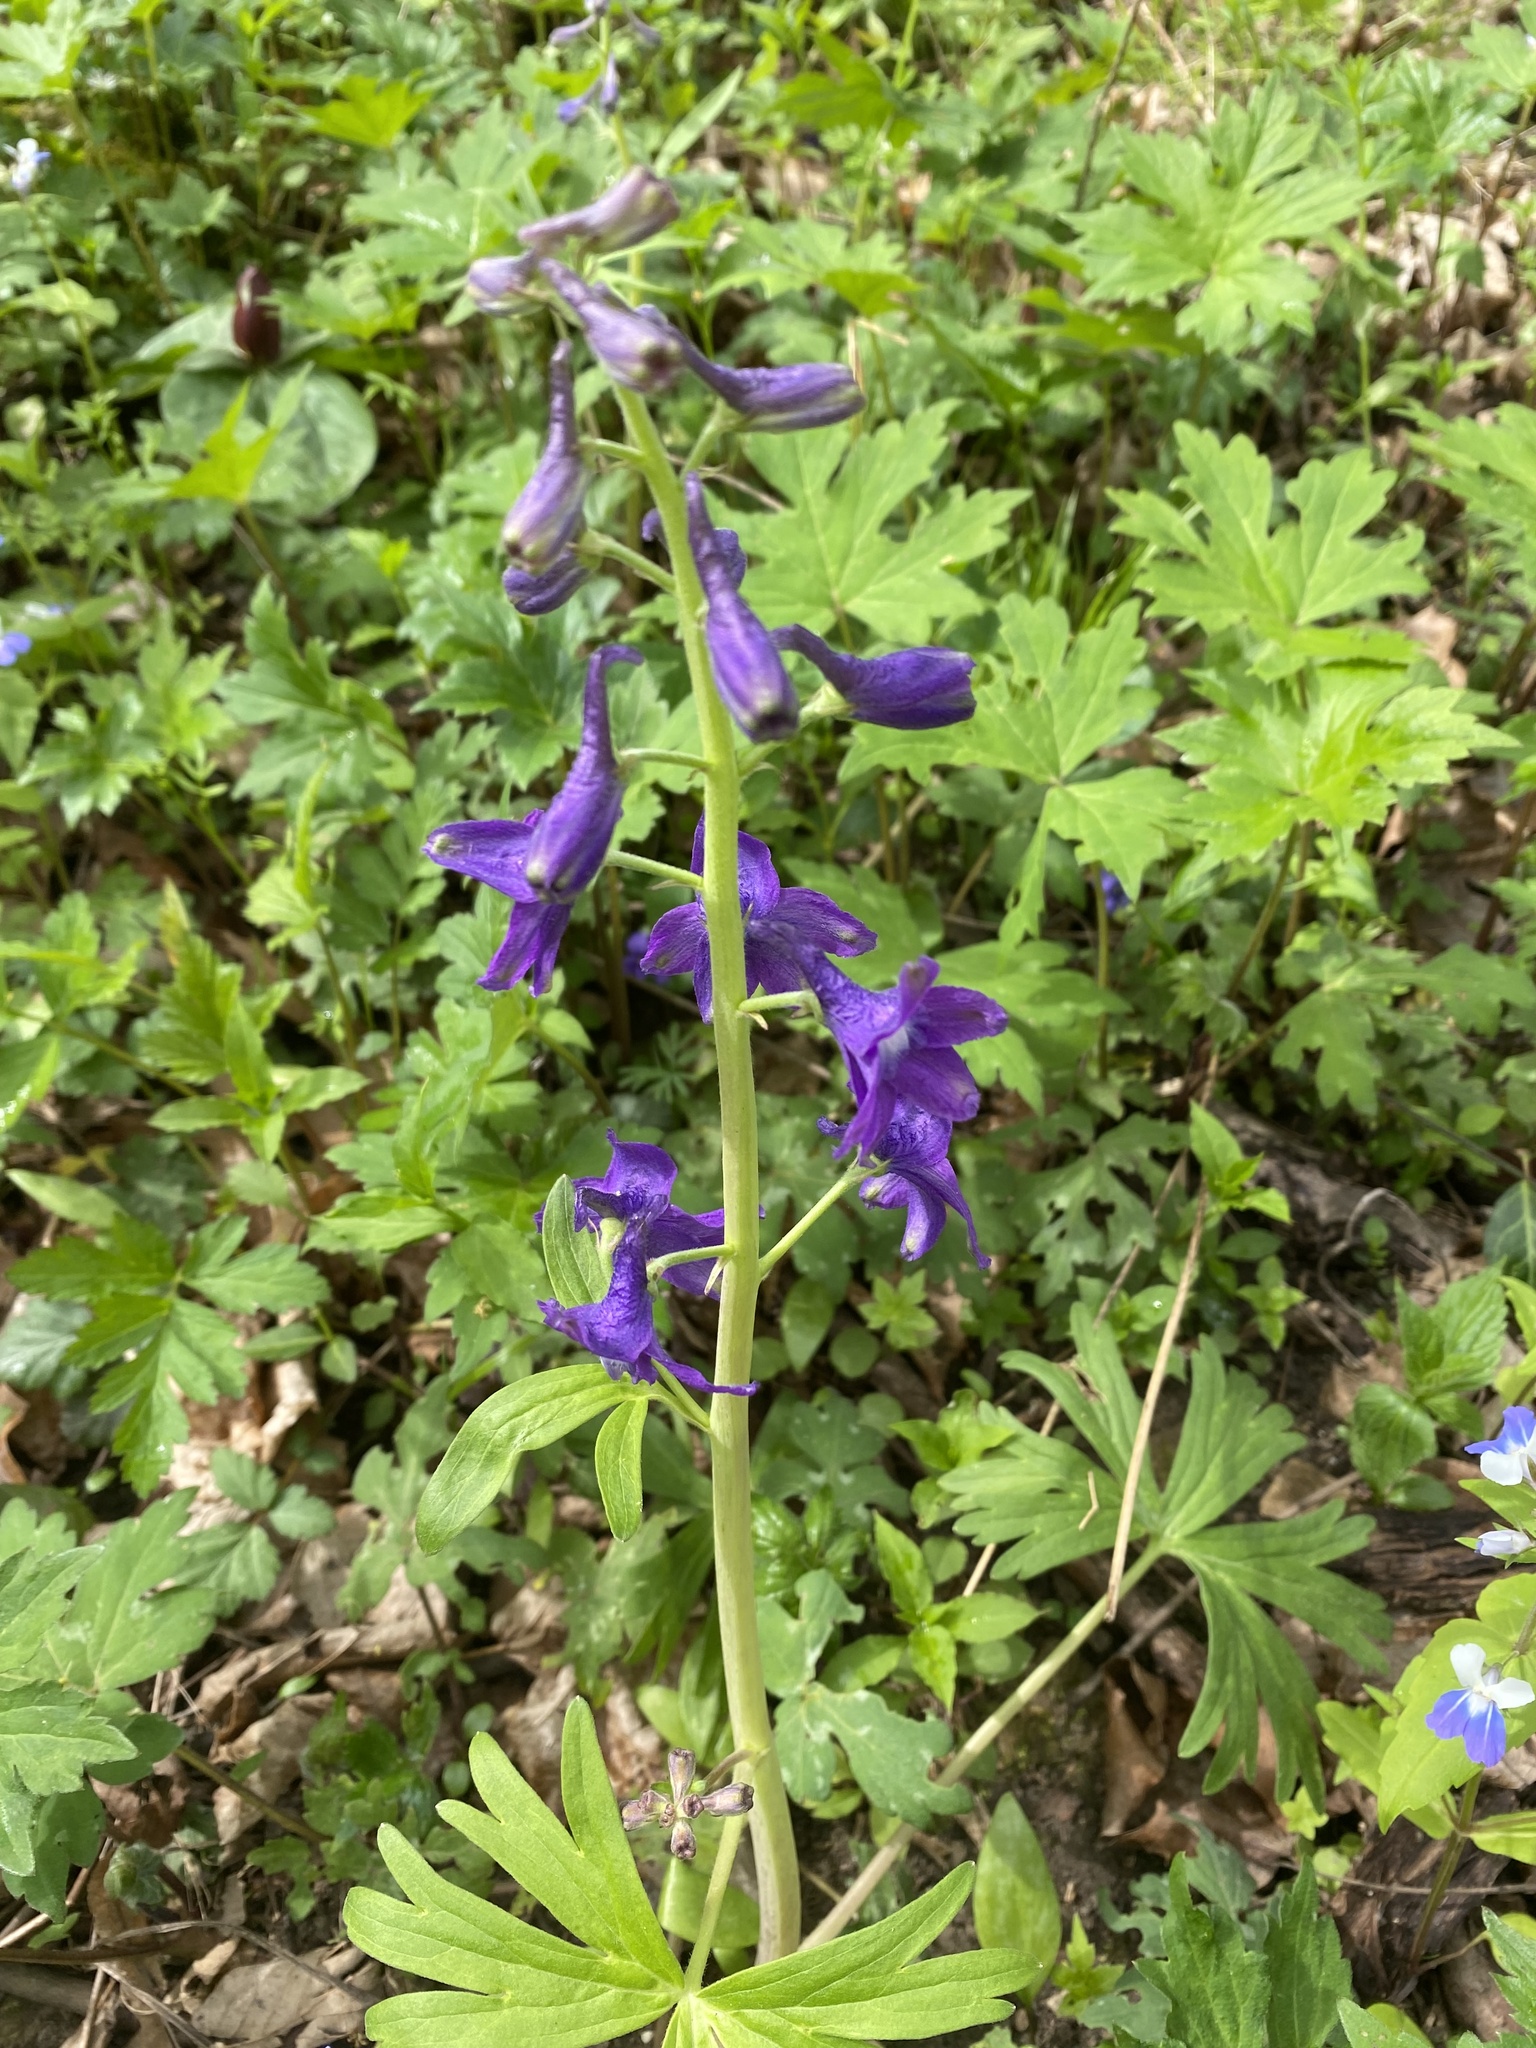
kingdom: Plantae
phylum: Tracheophyta
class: Magnoliopsida
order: Ranunculales
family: Ranunculaceae
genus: Delphinium
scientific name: Delphinium tricorne
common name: Dwarf larkspur
